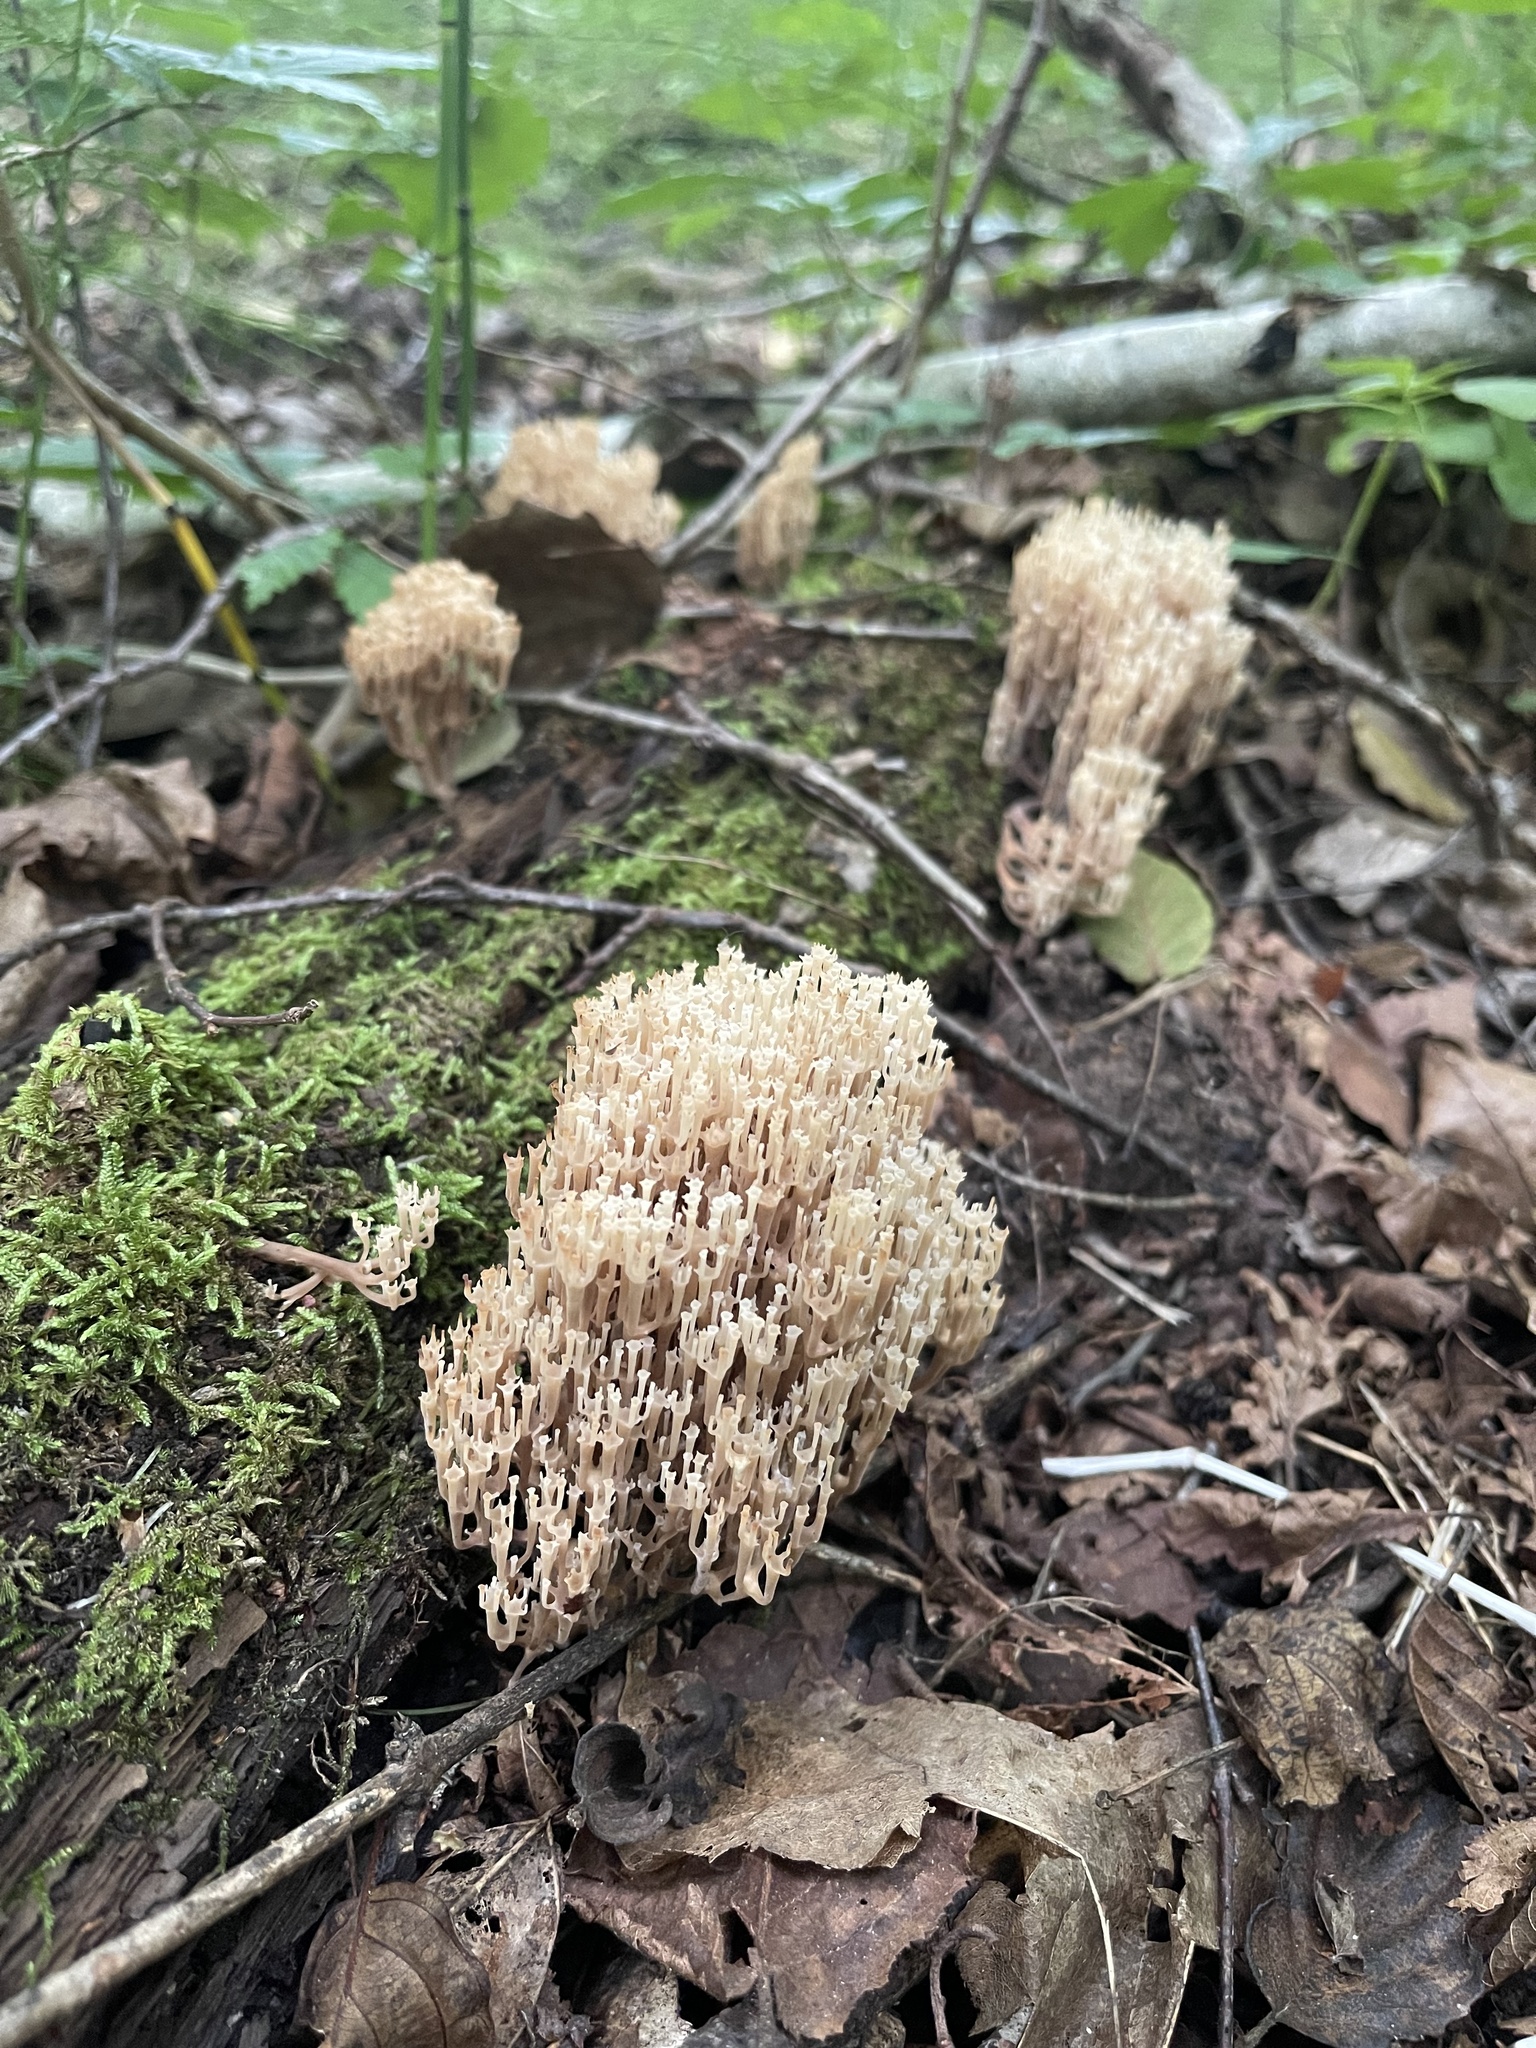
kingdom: Fungi
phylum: Basidiomycota
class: Agaricomycetes
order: Russulales
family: Auriscalpiaceae
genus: Artomyces
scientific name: Artomyces pyxidatus
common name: Crown-tipped coral fungus
